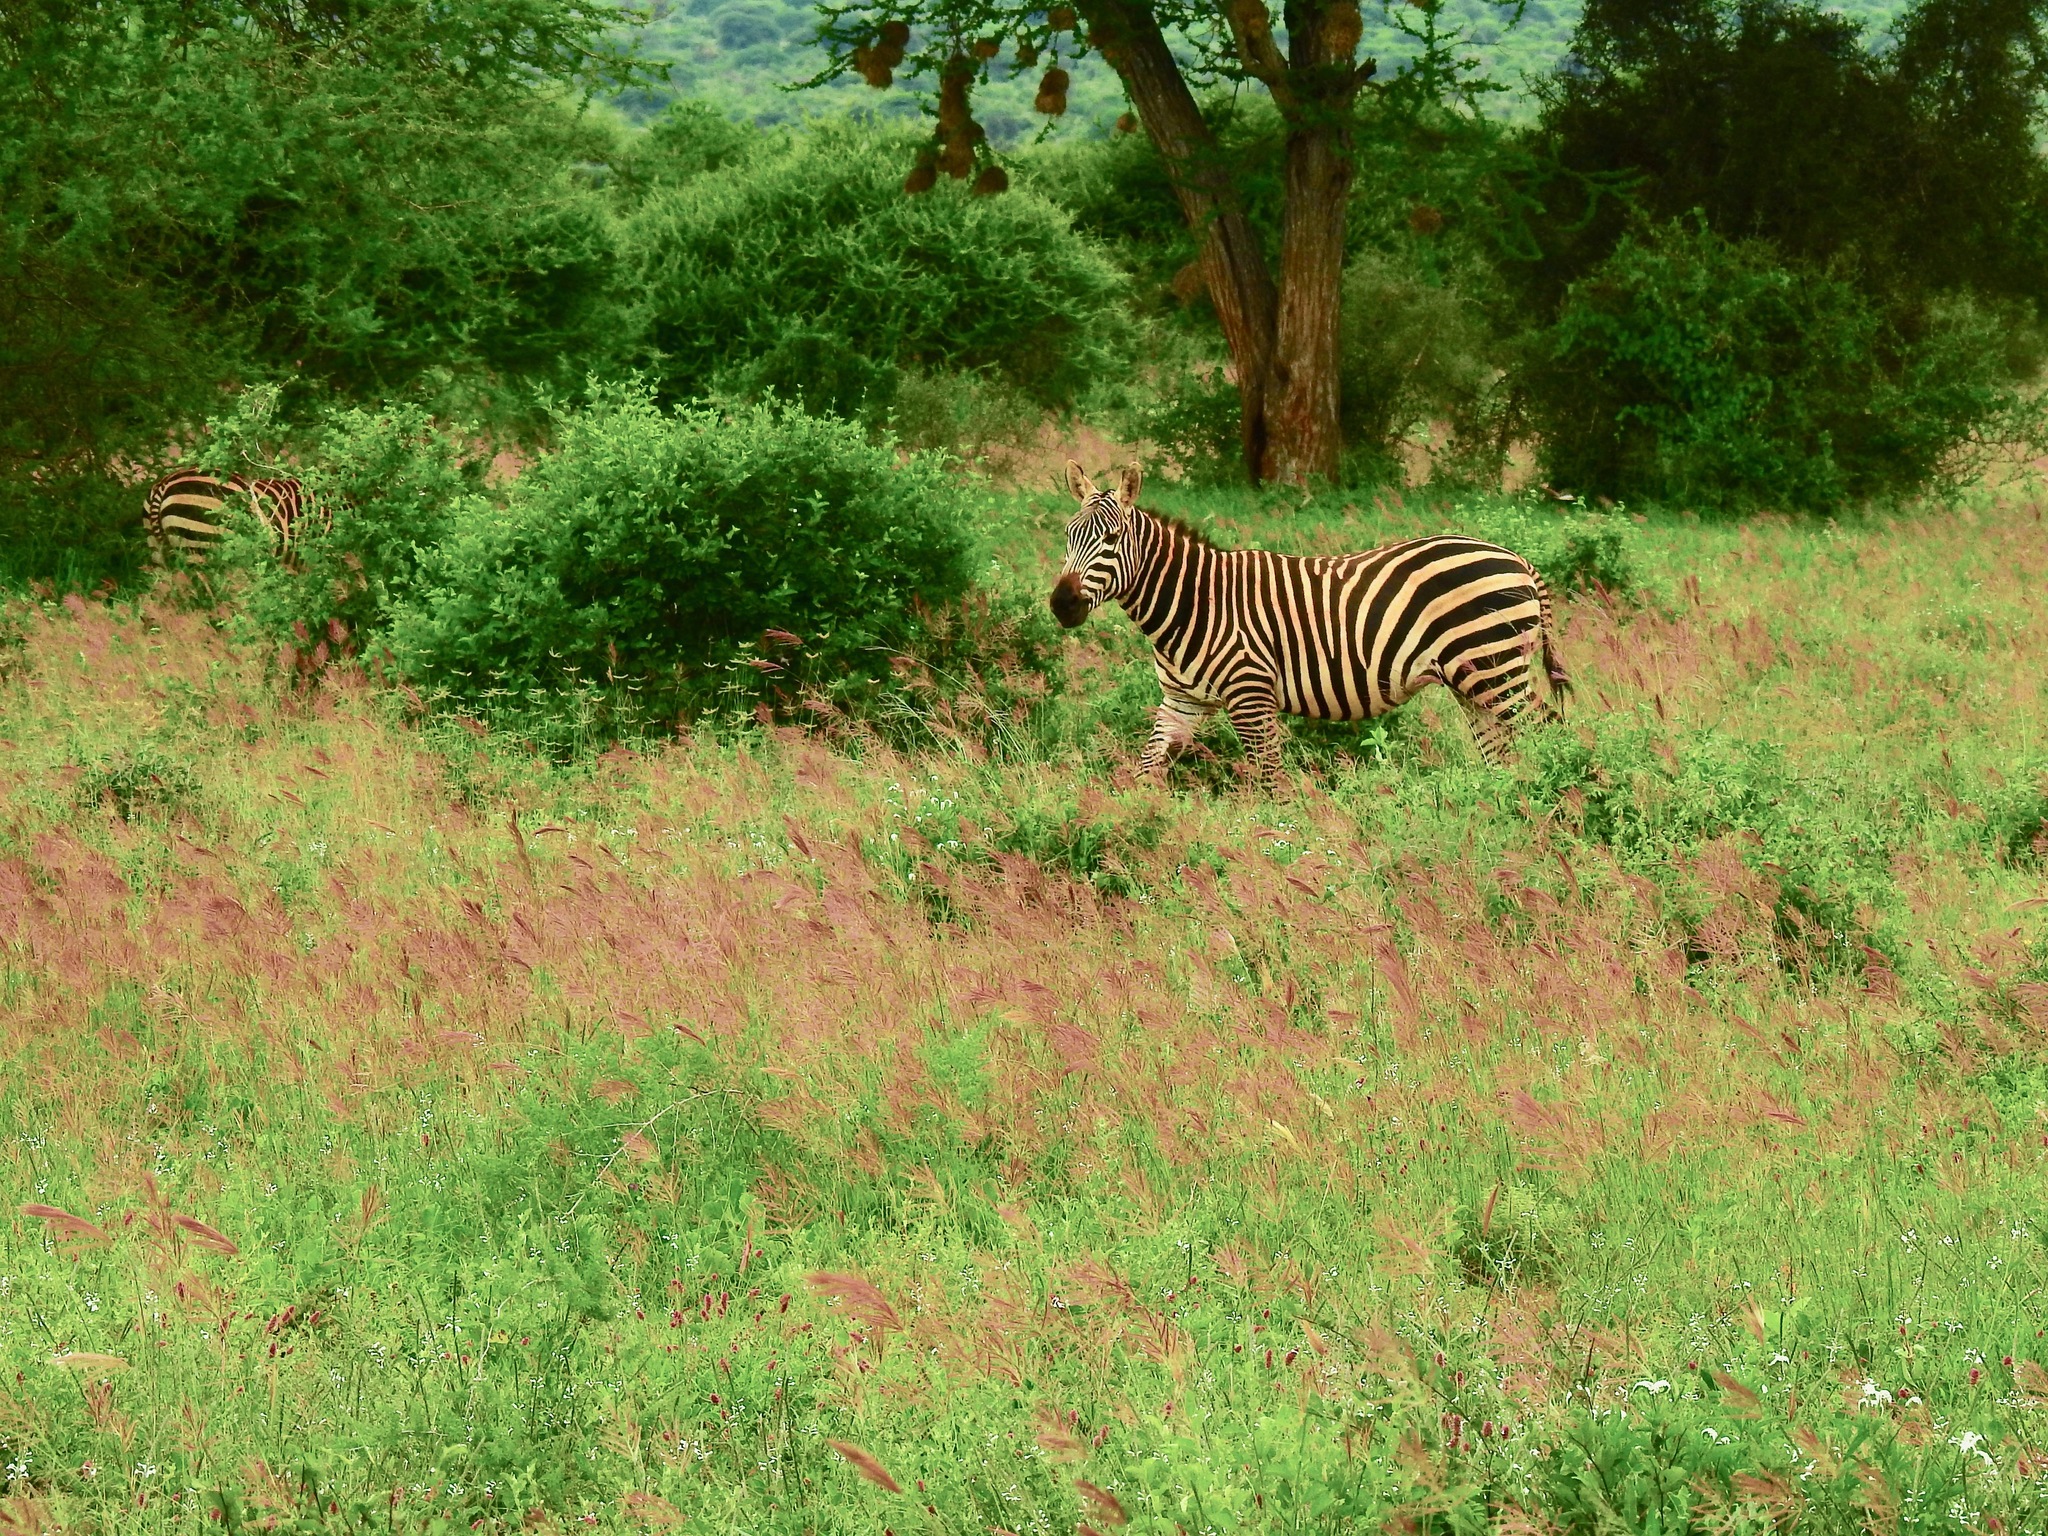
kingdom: Animalia
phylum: Chordata
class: Mammalia
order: Perissodactyla
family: Equidae
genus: Equus
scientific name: Equus quagga
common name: Plains zebra
